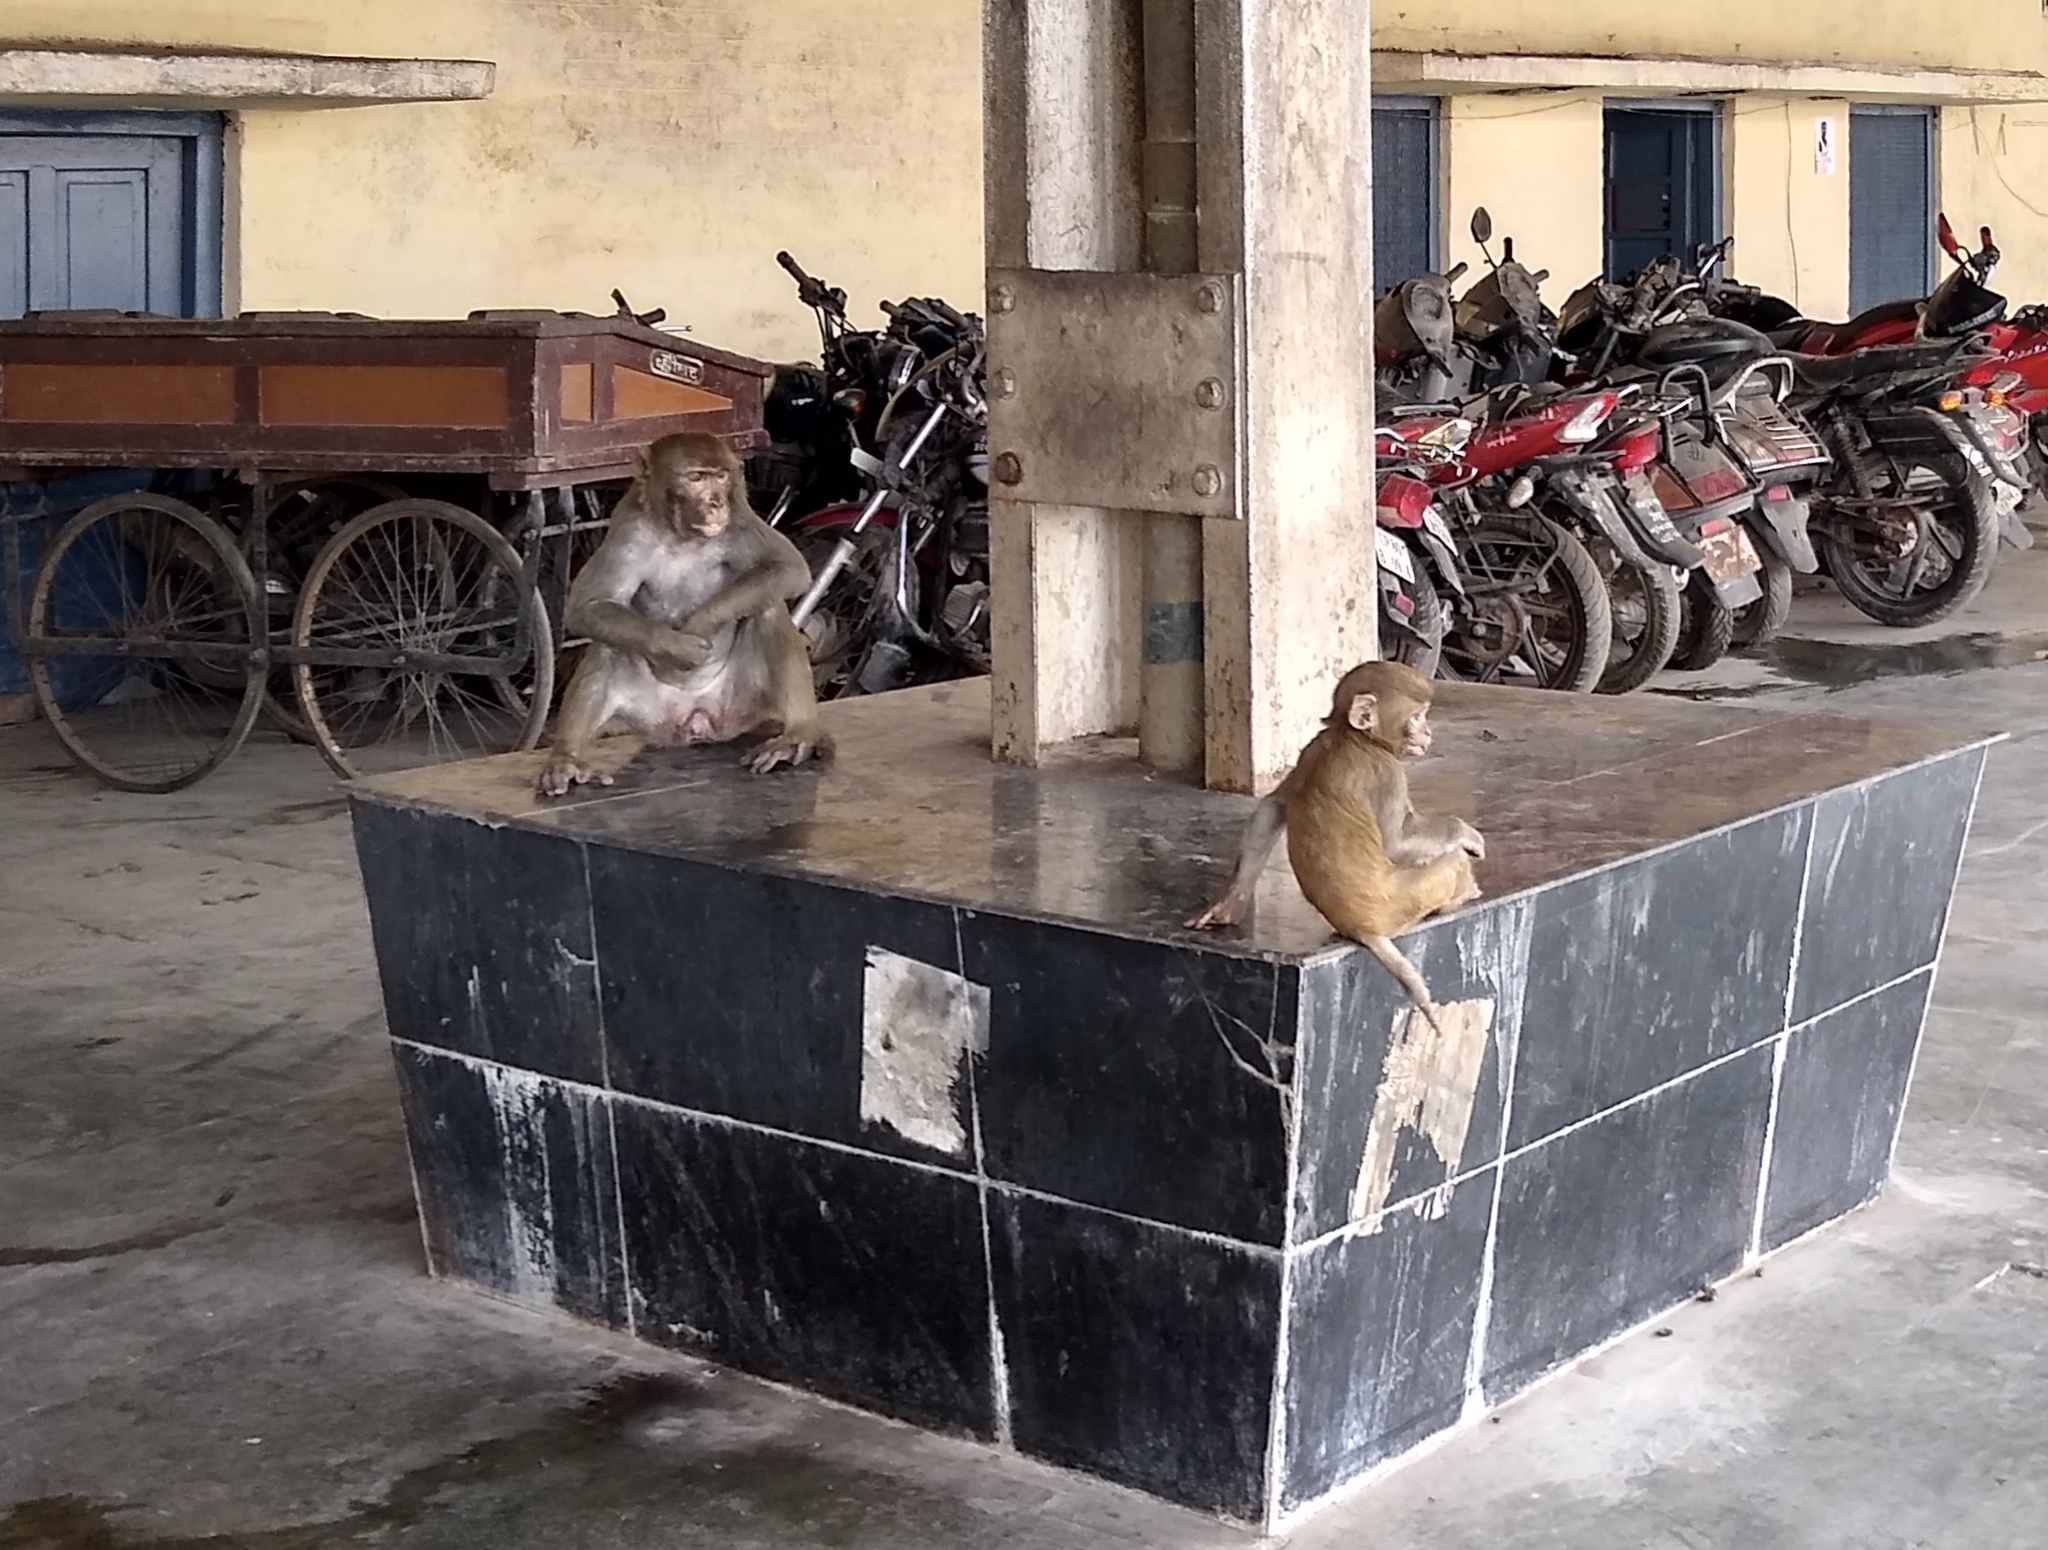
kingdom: Animalia
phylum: Chordata
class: Mammalia
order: Primates
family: Cercopithecidae
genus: Macaca
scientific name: Macaca mulatta
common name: Rhesus monkey
